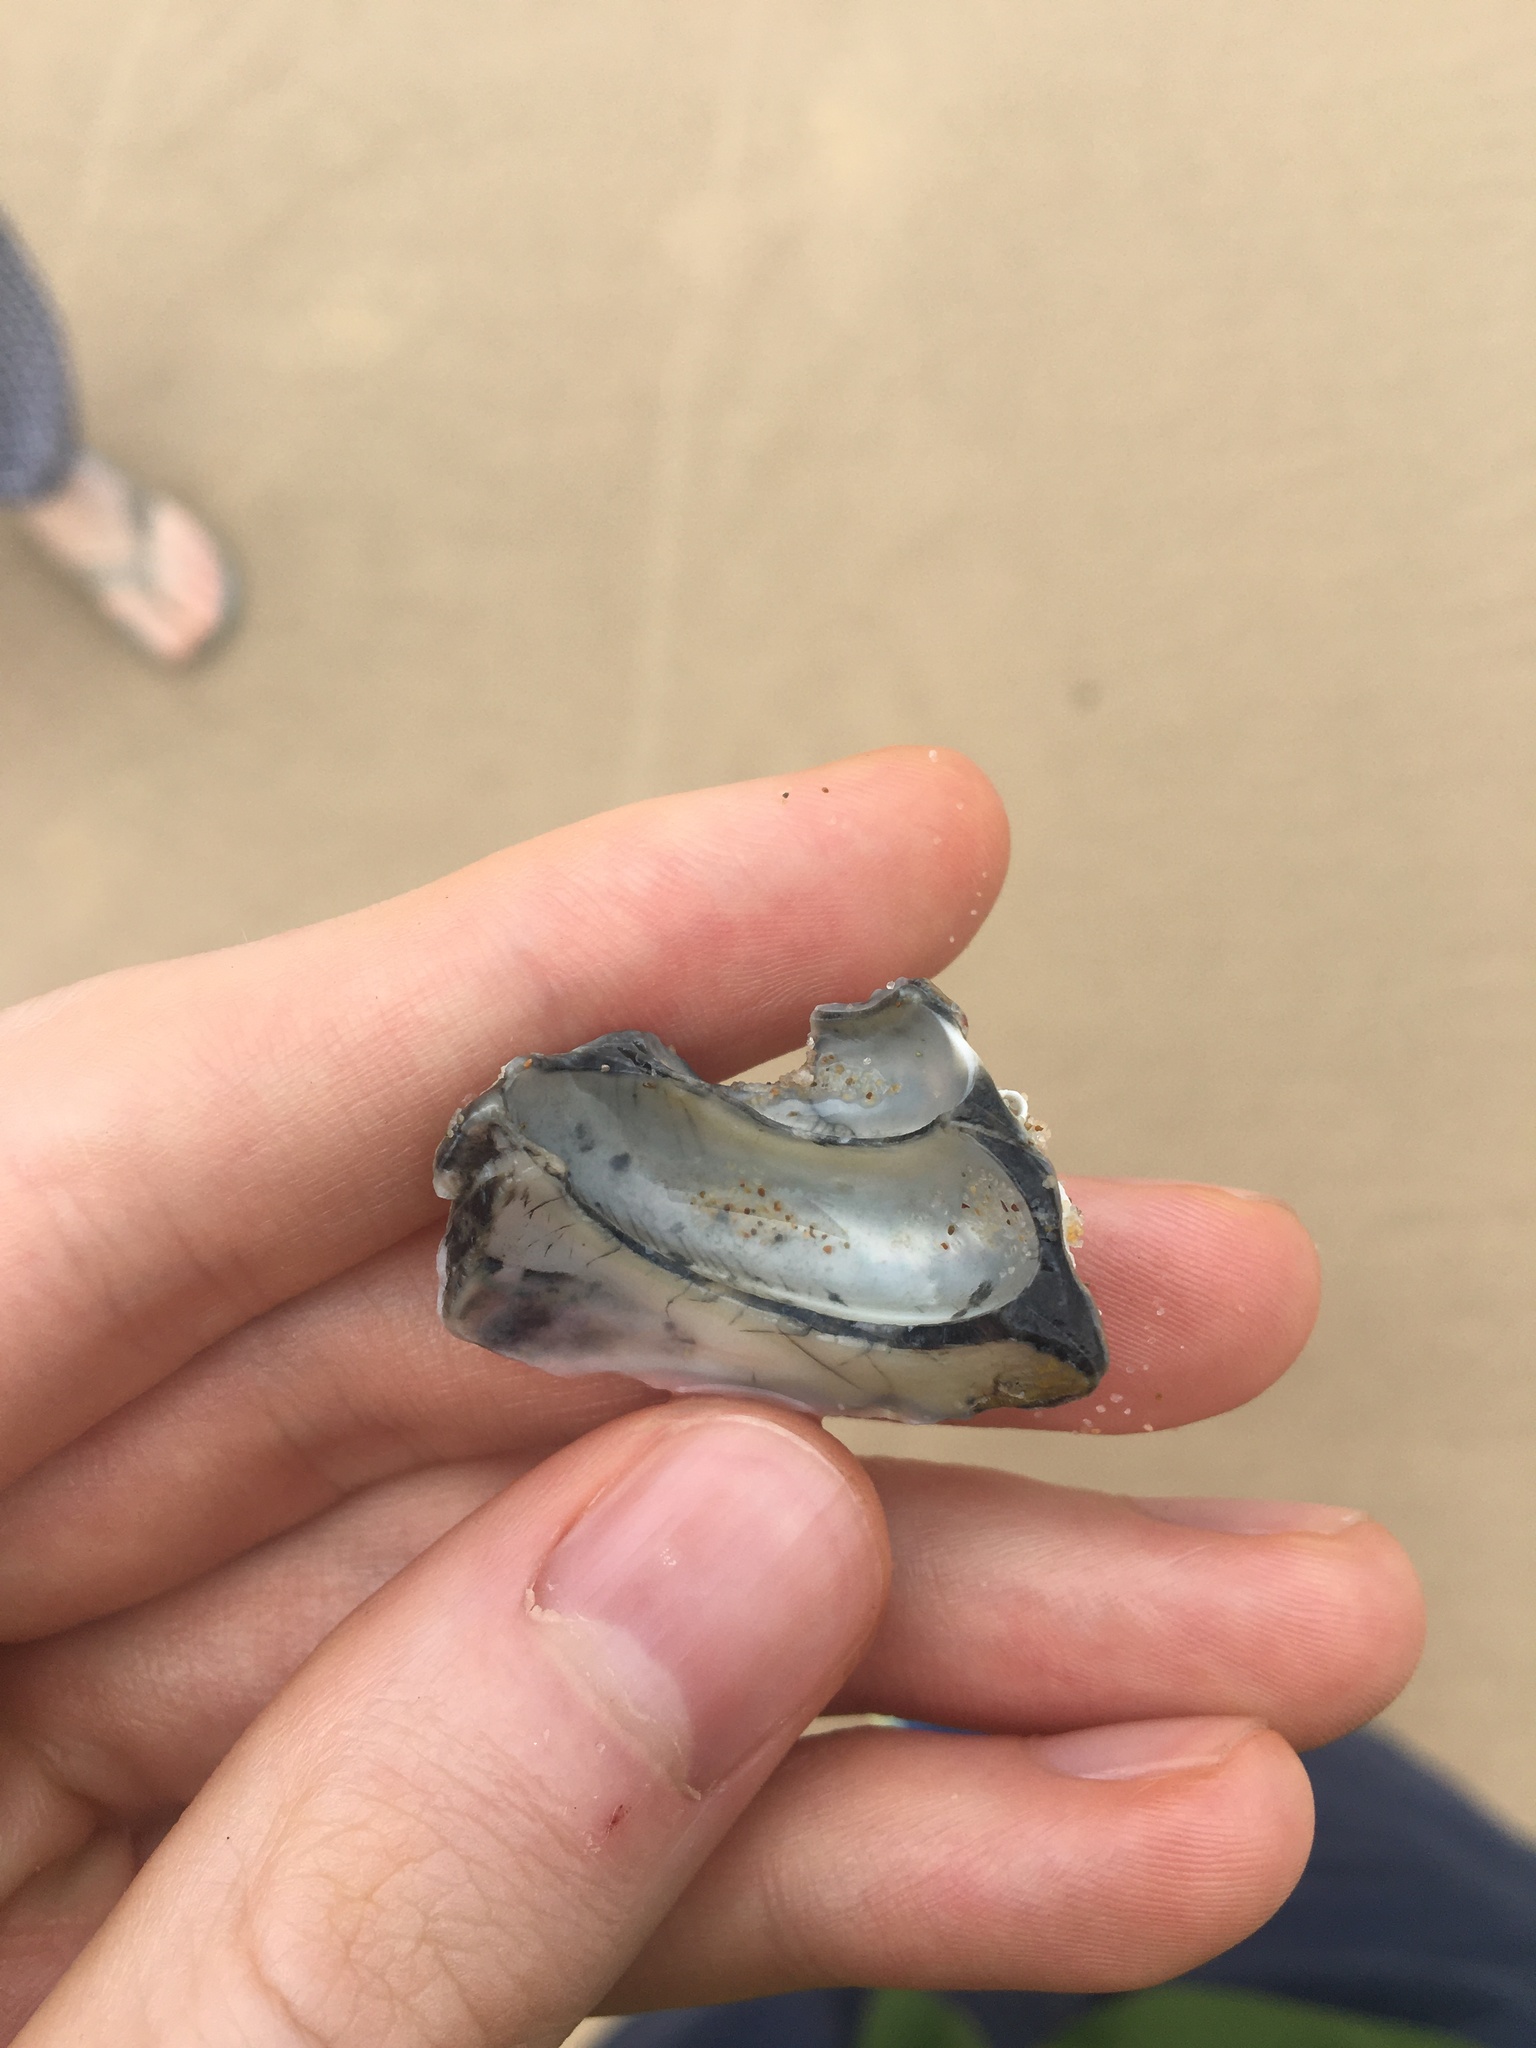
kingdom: Animalia
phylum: Mollusca
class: Gastropoda
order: Trochida
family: Turbinidae
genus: Astralium
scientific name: Astralium tentoriiforme
